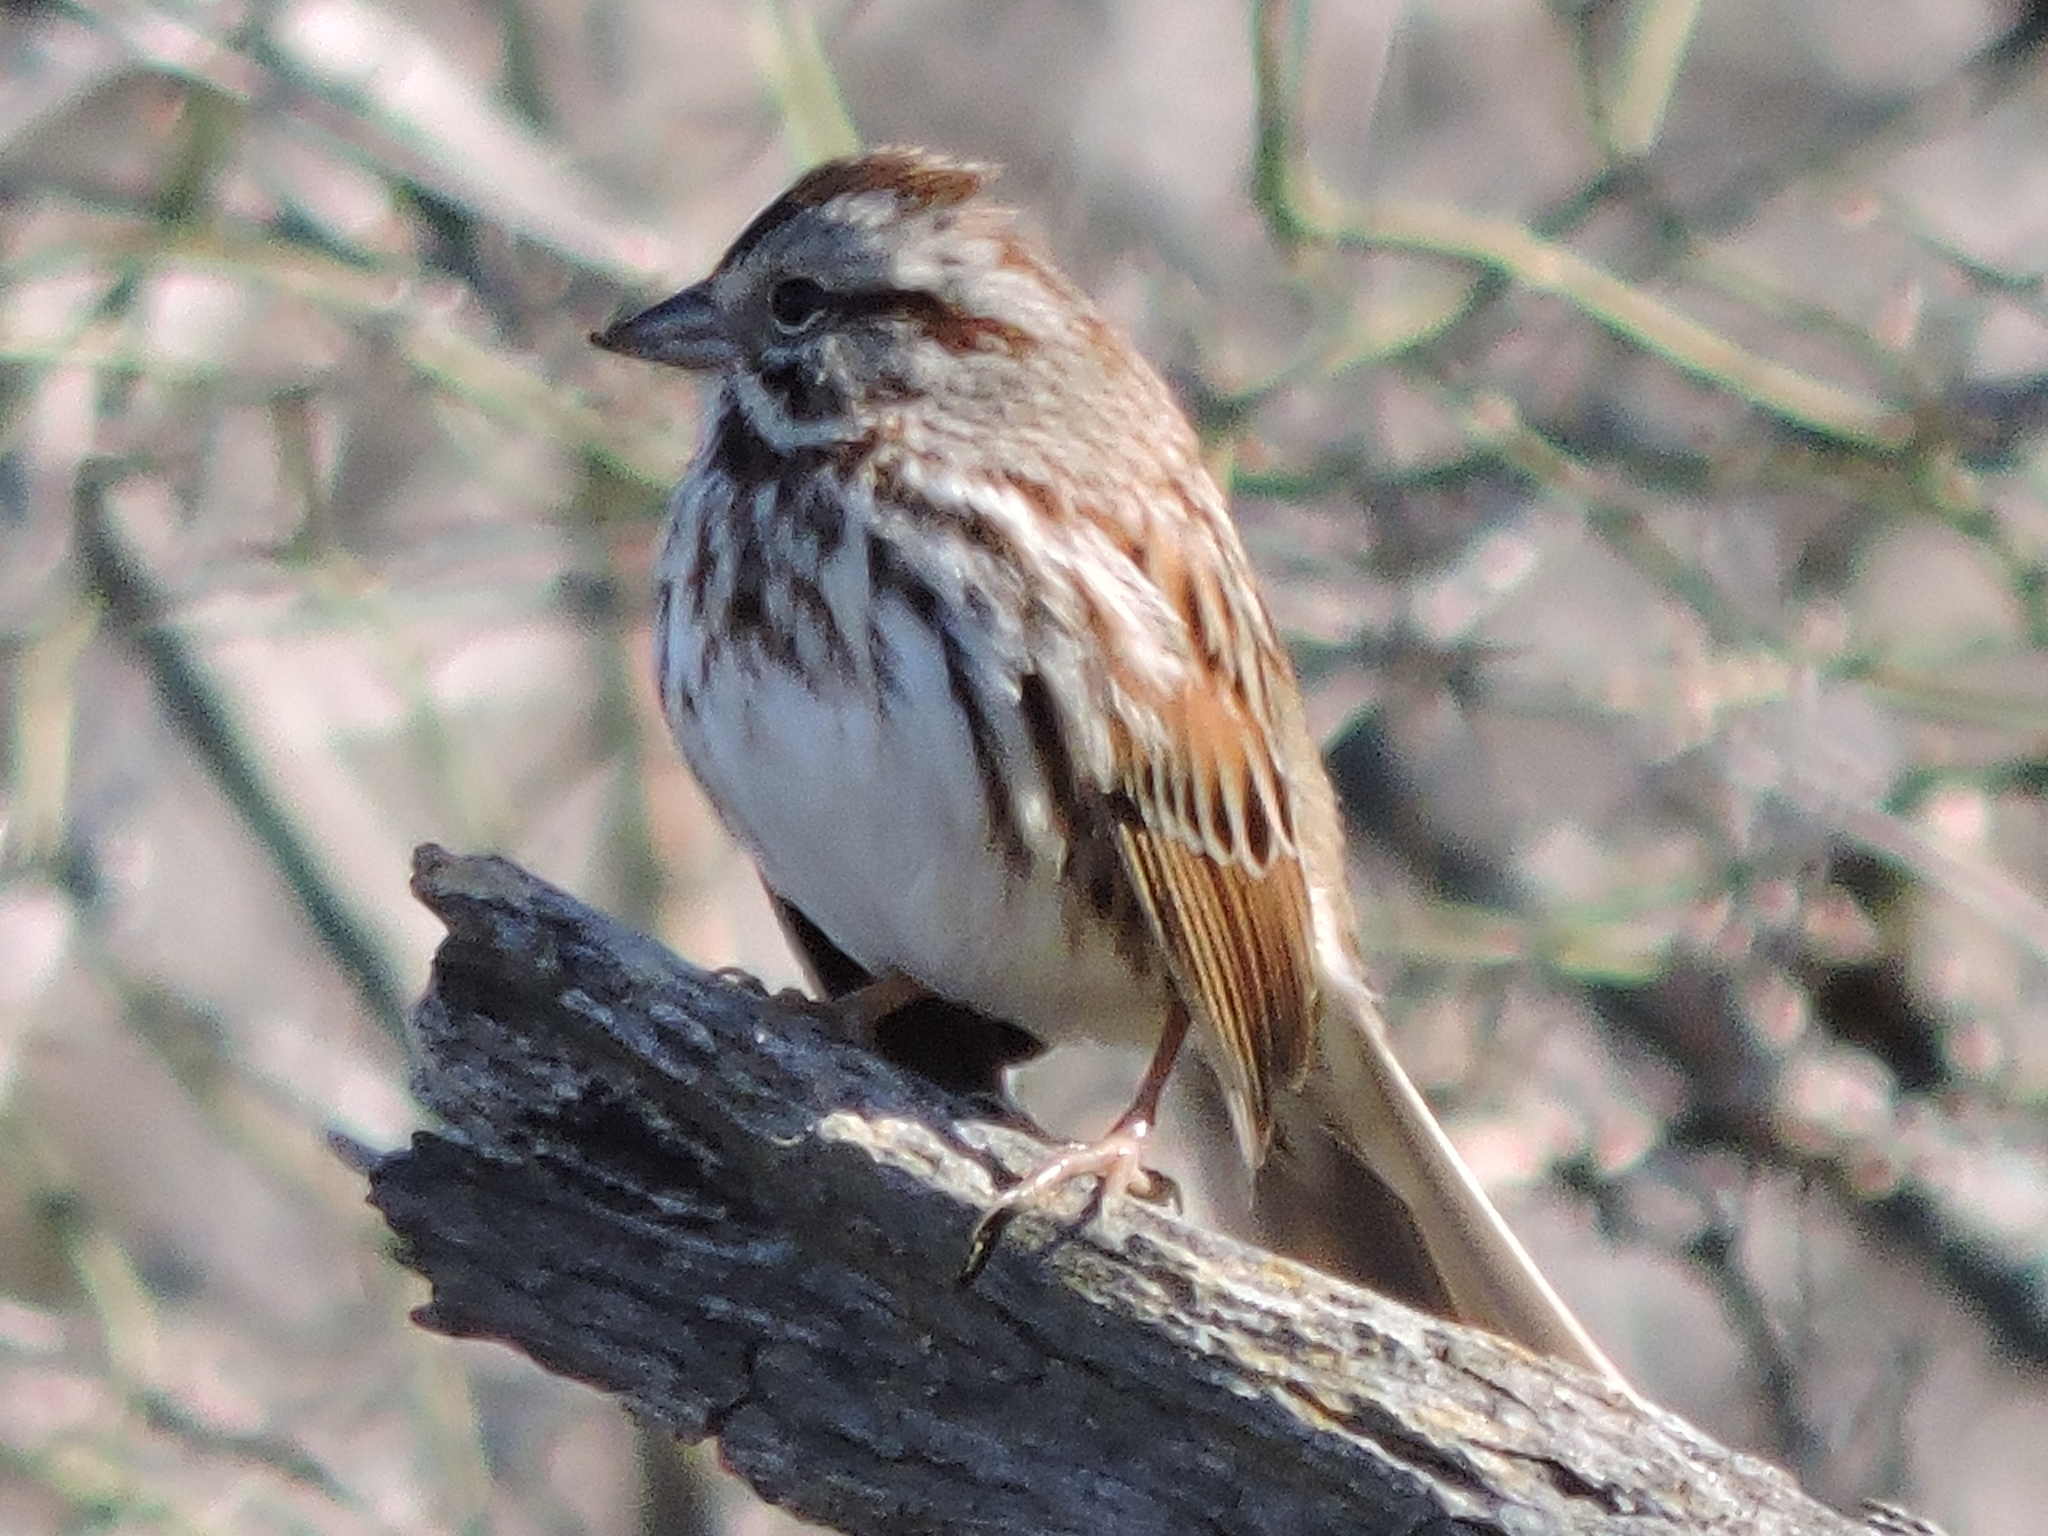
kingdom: Animalia
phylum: Chordata
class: Aves
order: Passeriformes
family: Passerellidae
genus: Melospiza
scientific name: Melospiza melodia
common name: Song sparrow
